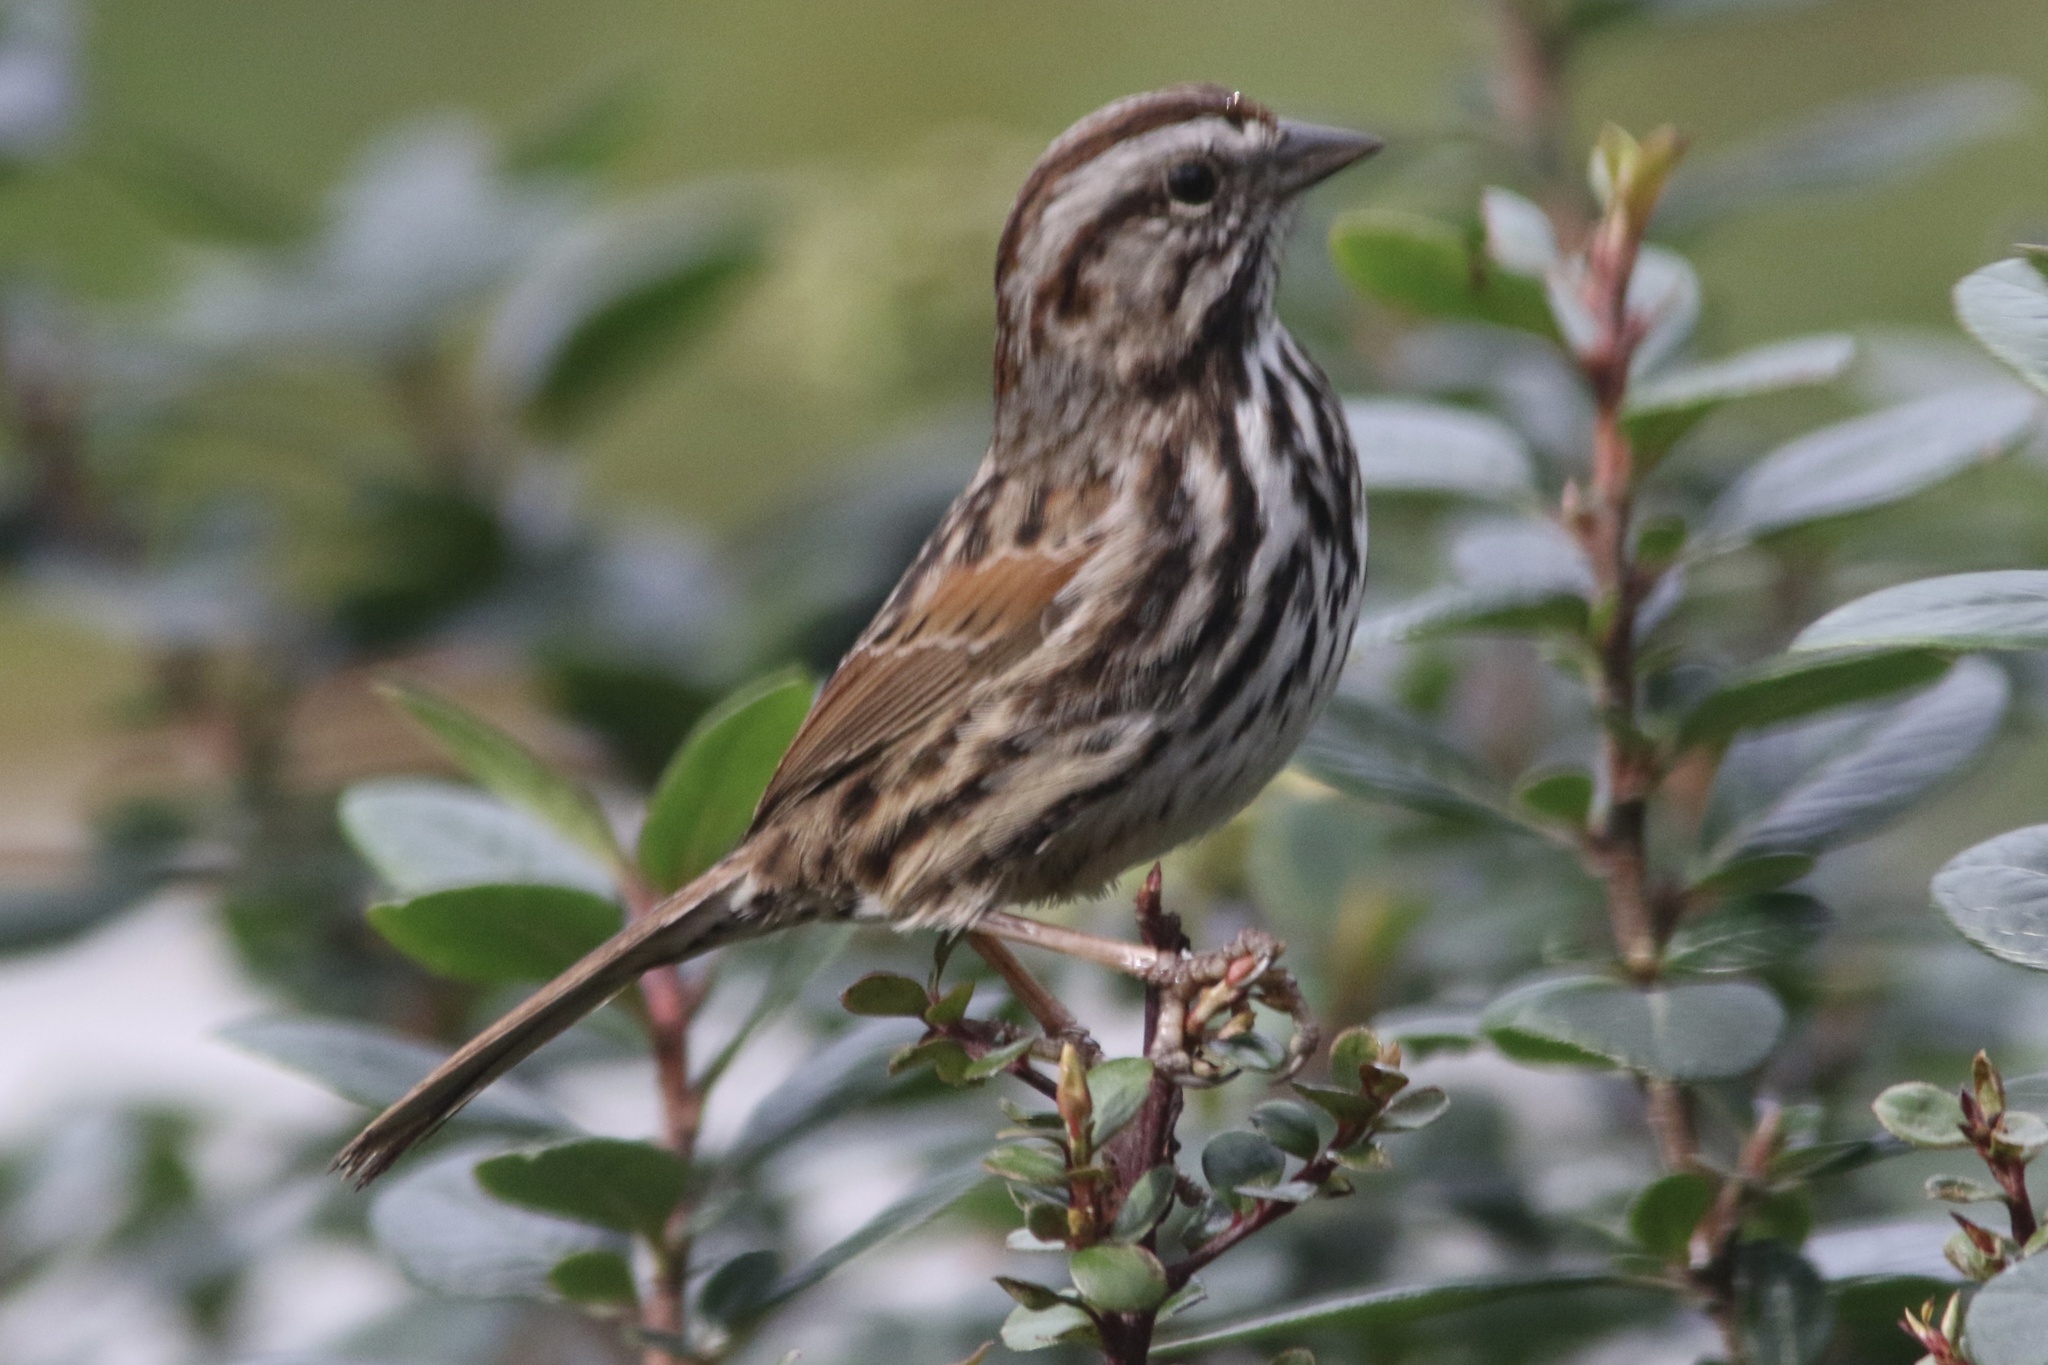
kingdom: Animalia
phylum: Chordata
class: Aves
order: Passeriformes
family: Passerellidae
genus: Melospiza
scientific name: Melospiza melodia
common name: Song sparrow
